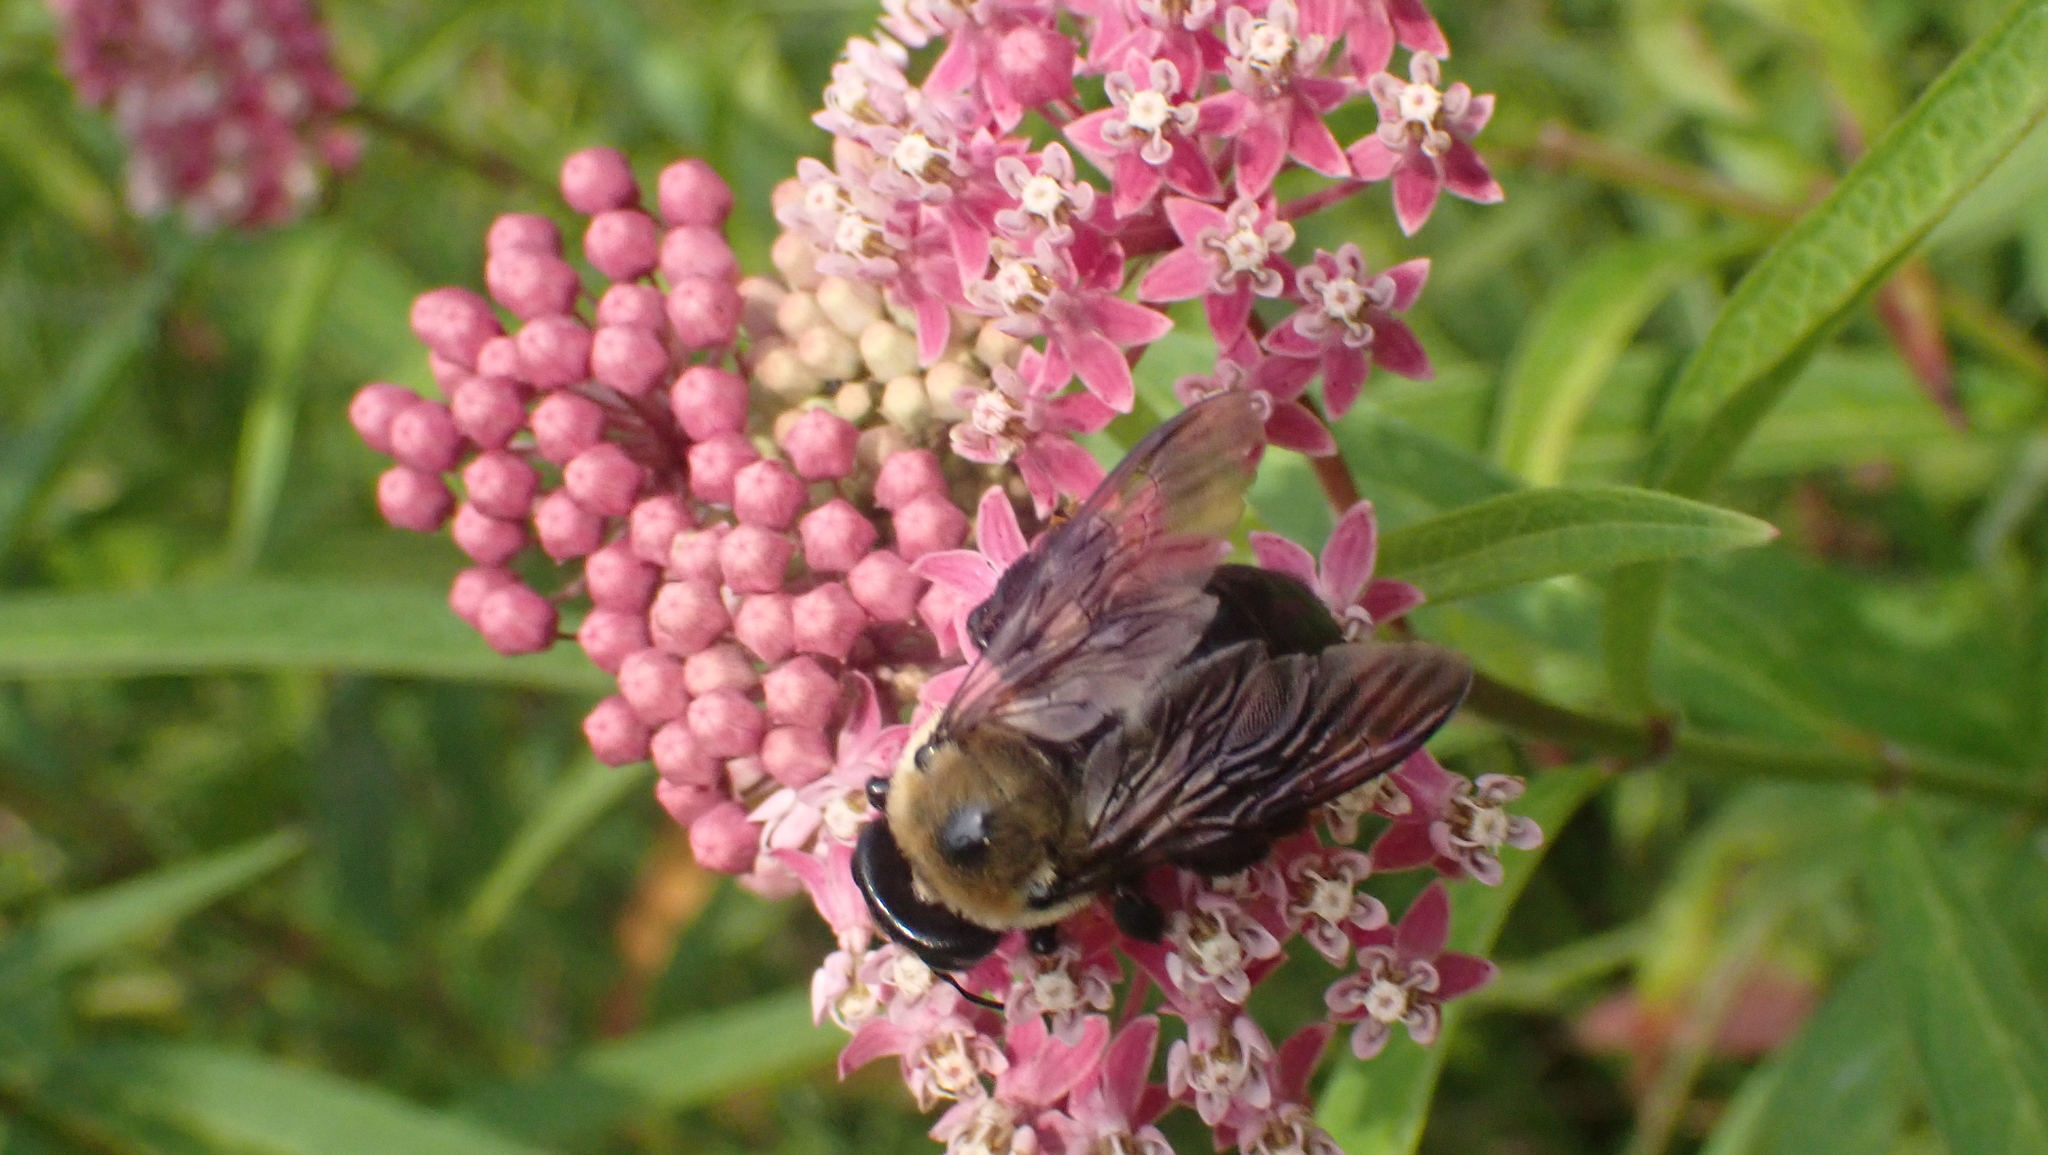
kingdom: Animalia
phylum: Arthropoda
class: Insecta
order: Hymenoptera
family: Apidae
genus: Xylocopa
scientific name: Xylocopa virginica
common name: Carpenter bee
